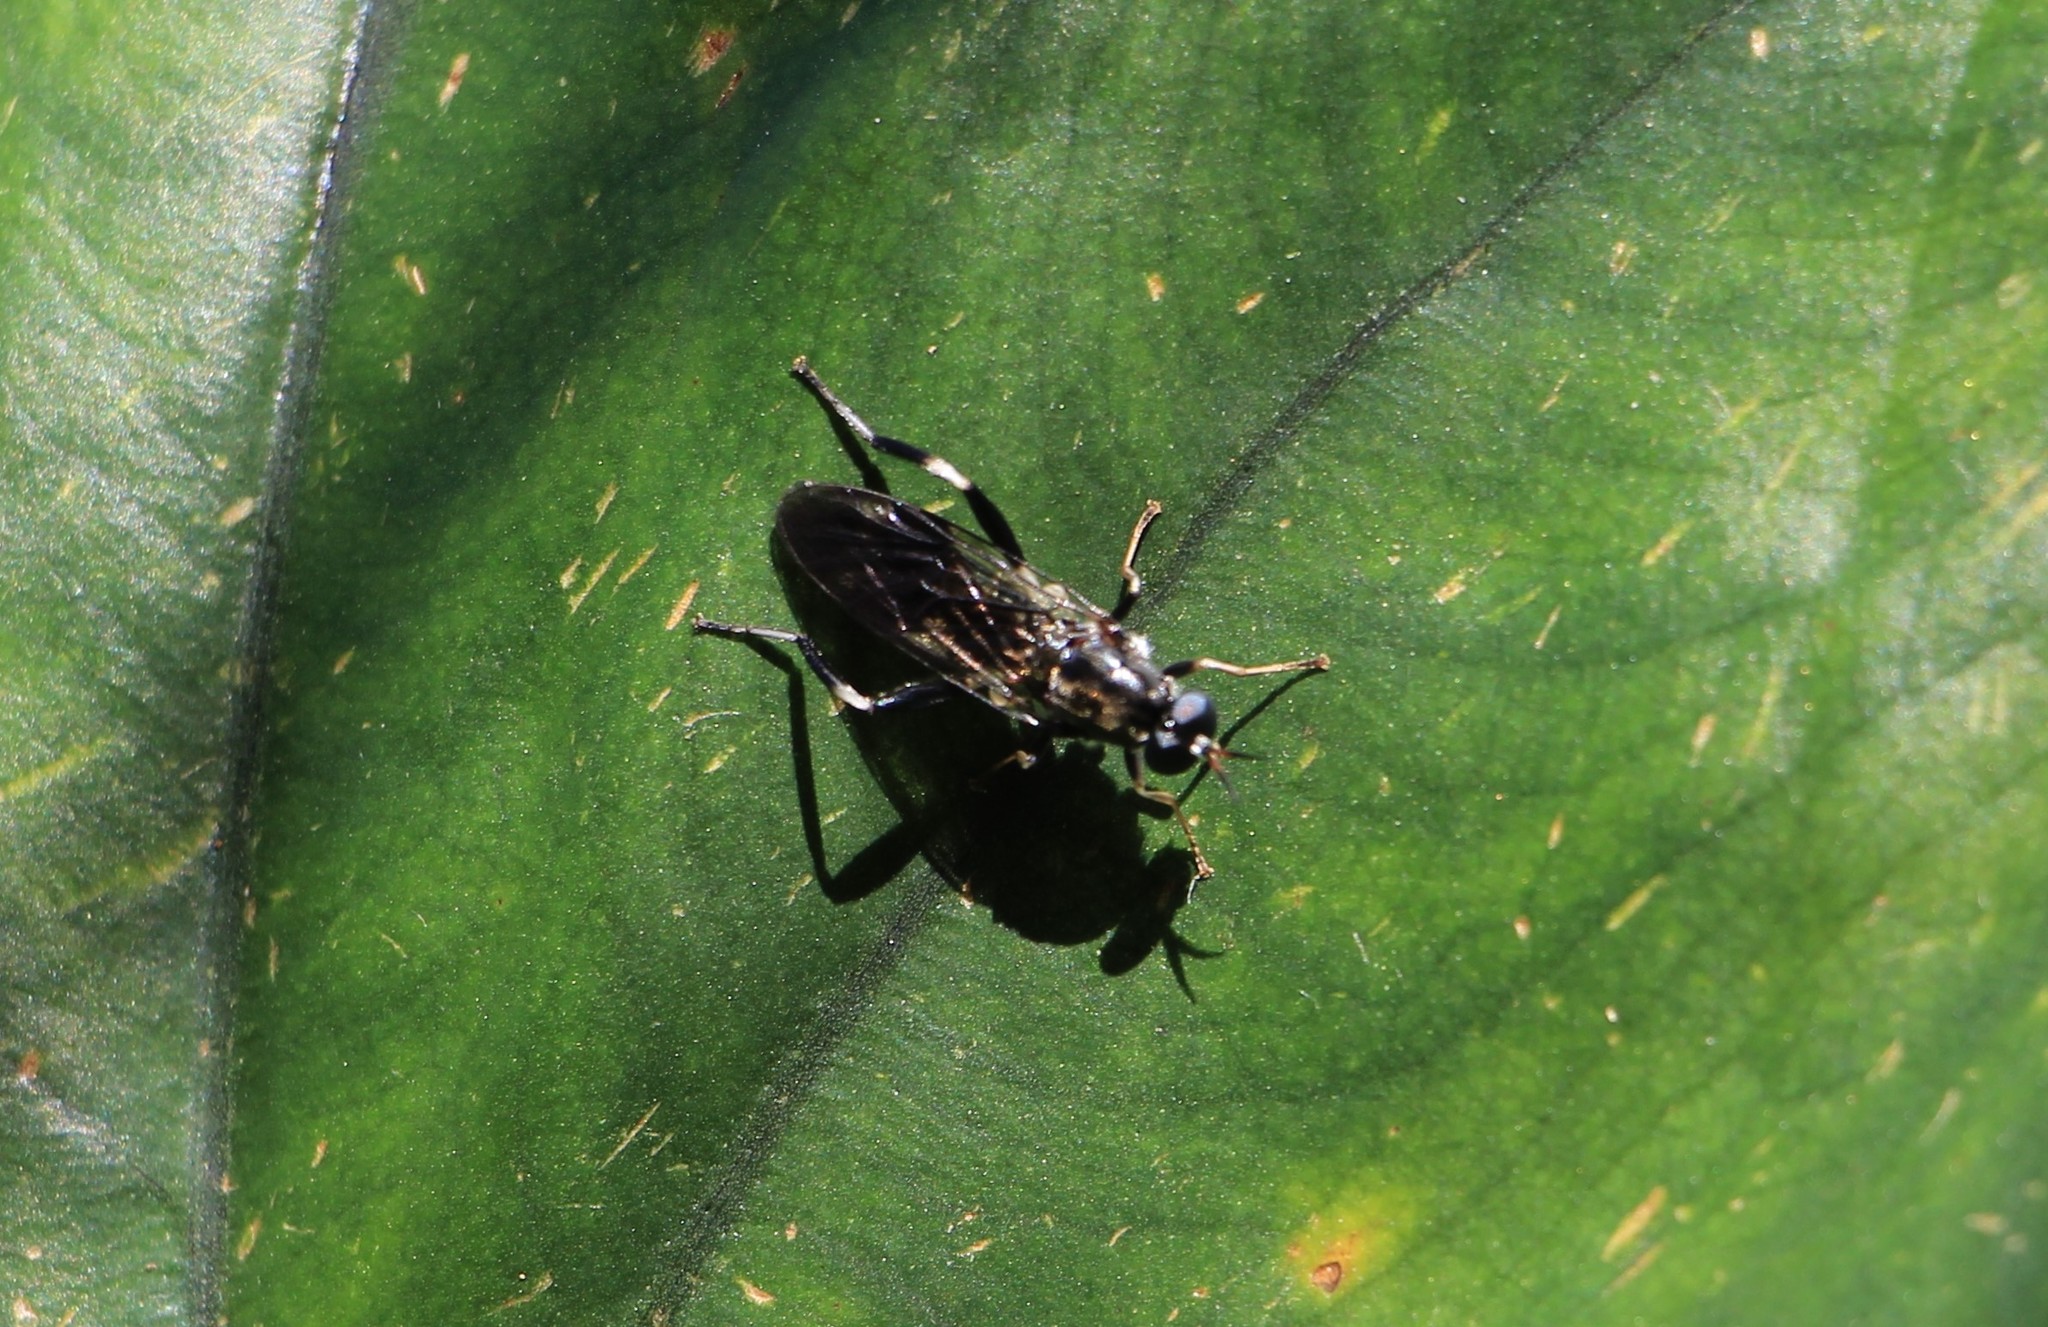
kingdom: Animalia
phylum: Arthropoda
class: Insecta
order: Diptera
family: Stratiomyidae
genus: Exaireta
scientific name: Exaireta spinigera
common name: Blue soldier fly
